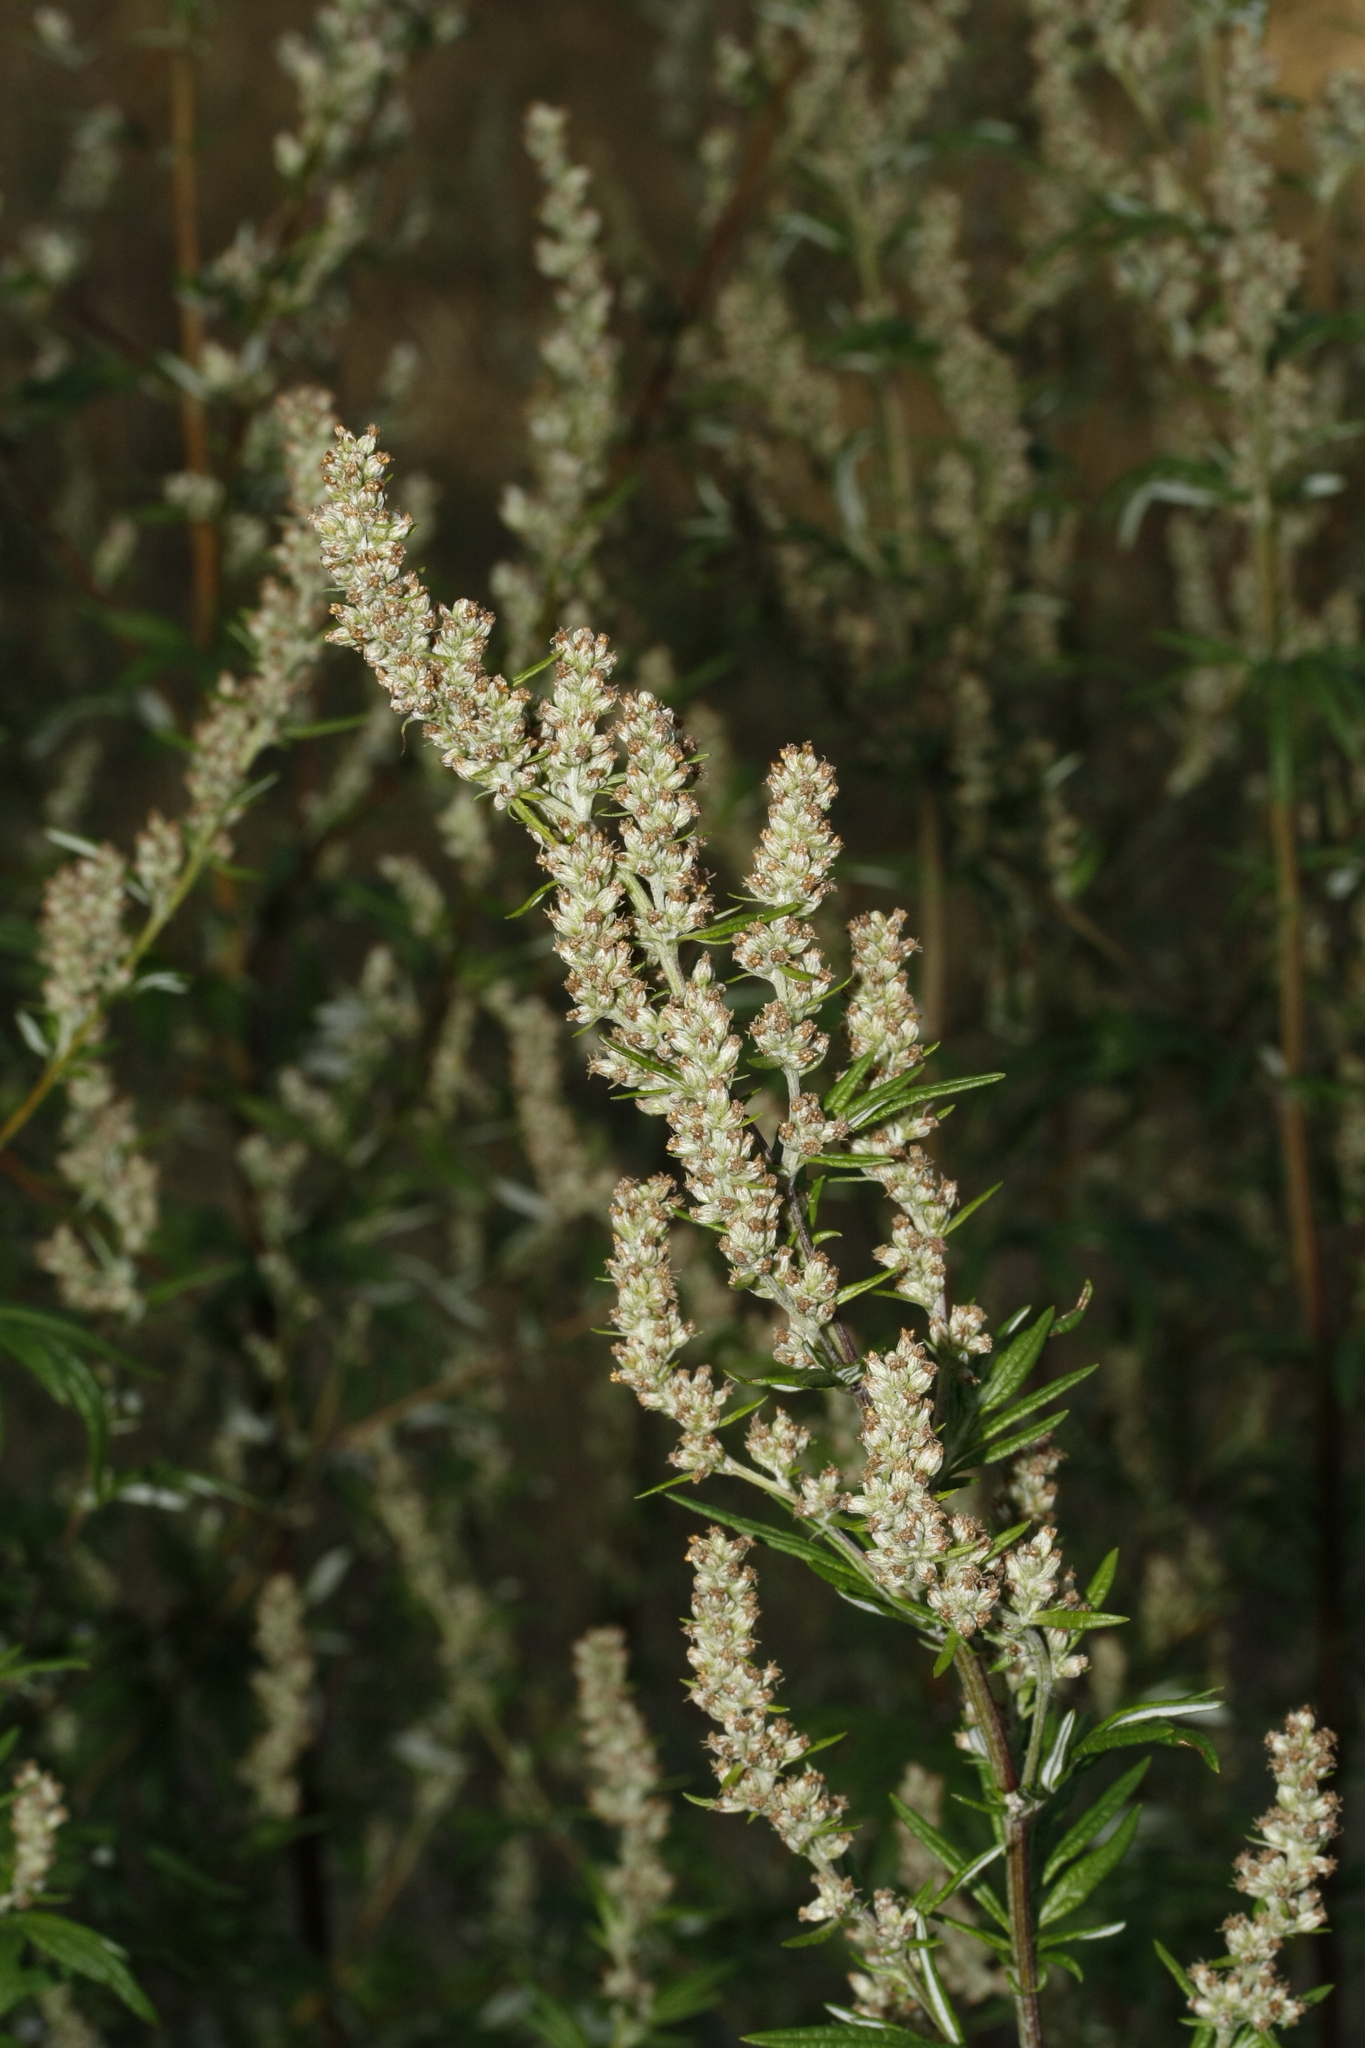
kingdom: Plantae
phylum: Tracheophyta
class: Magnoliopsida
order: Asterales
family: Asteraceae
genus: Artemisia
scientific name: Artemisia vulgaris
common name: Mugwort
